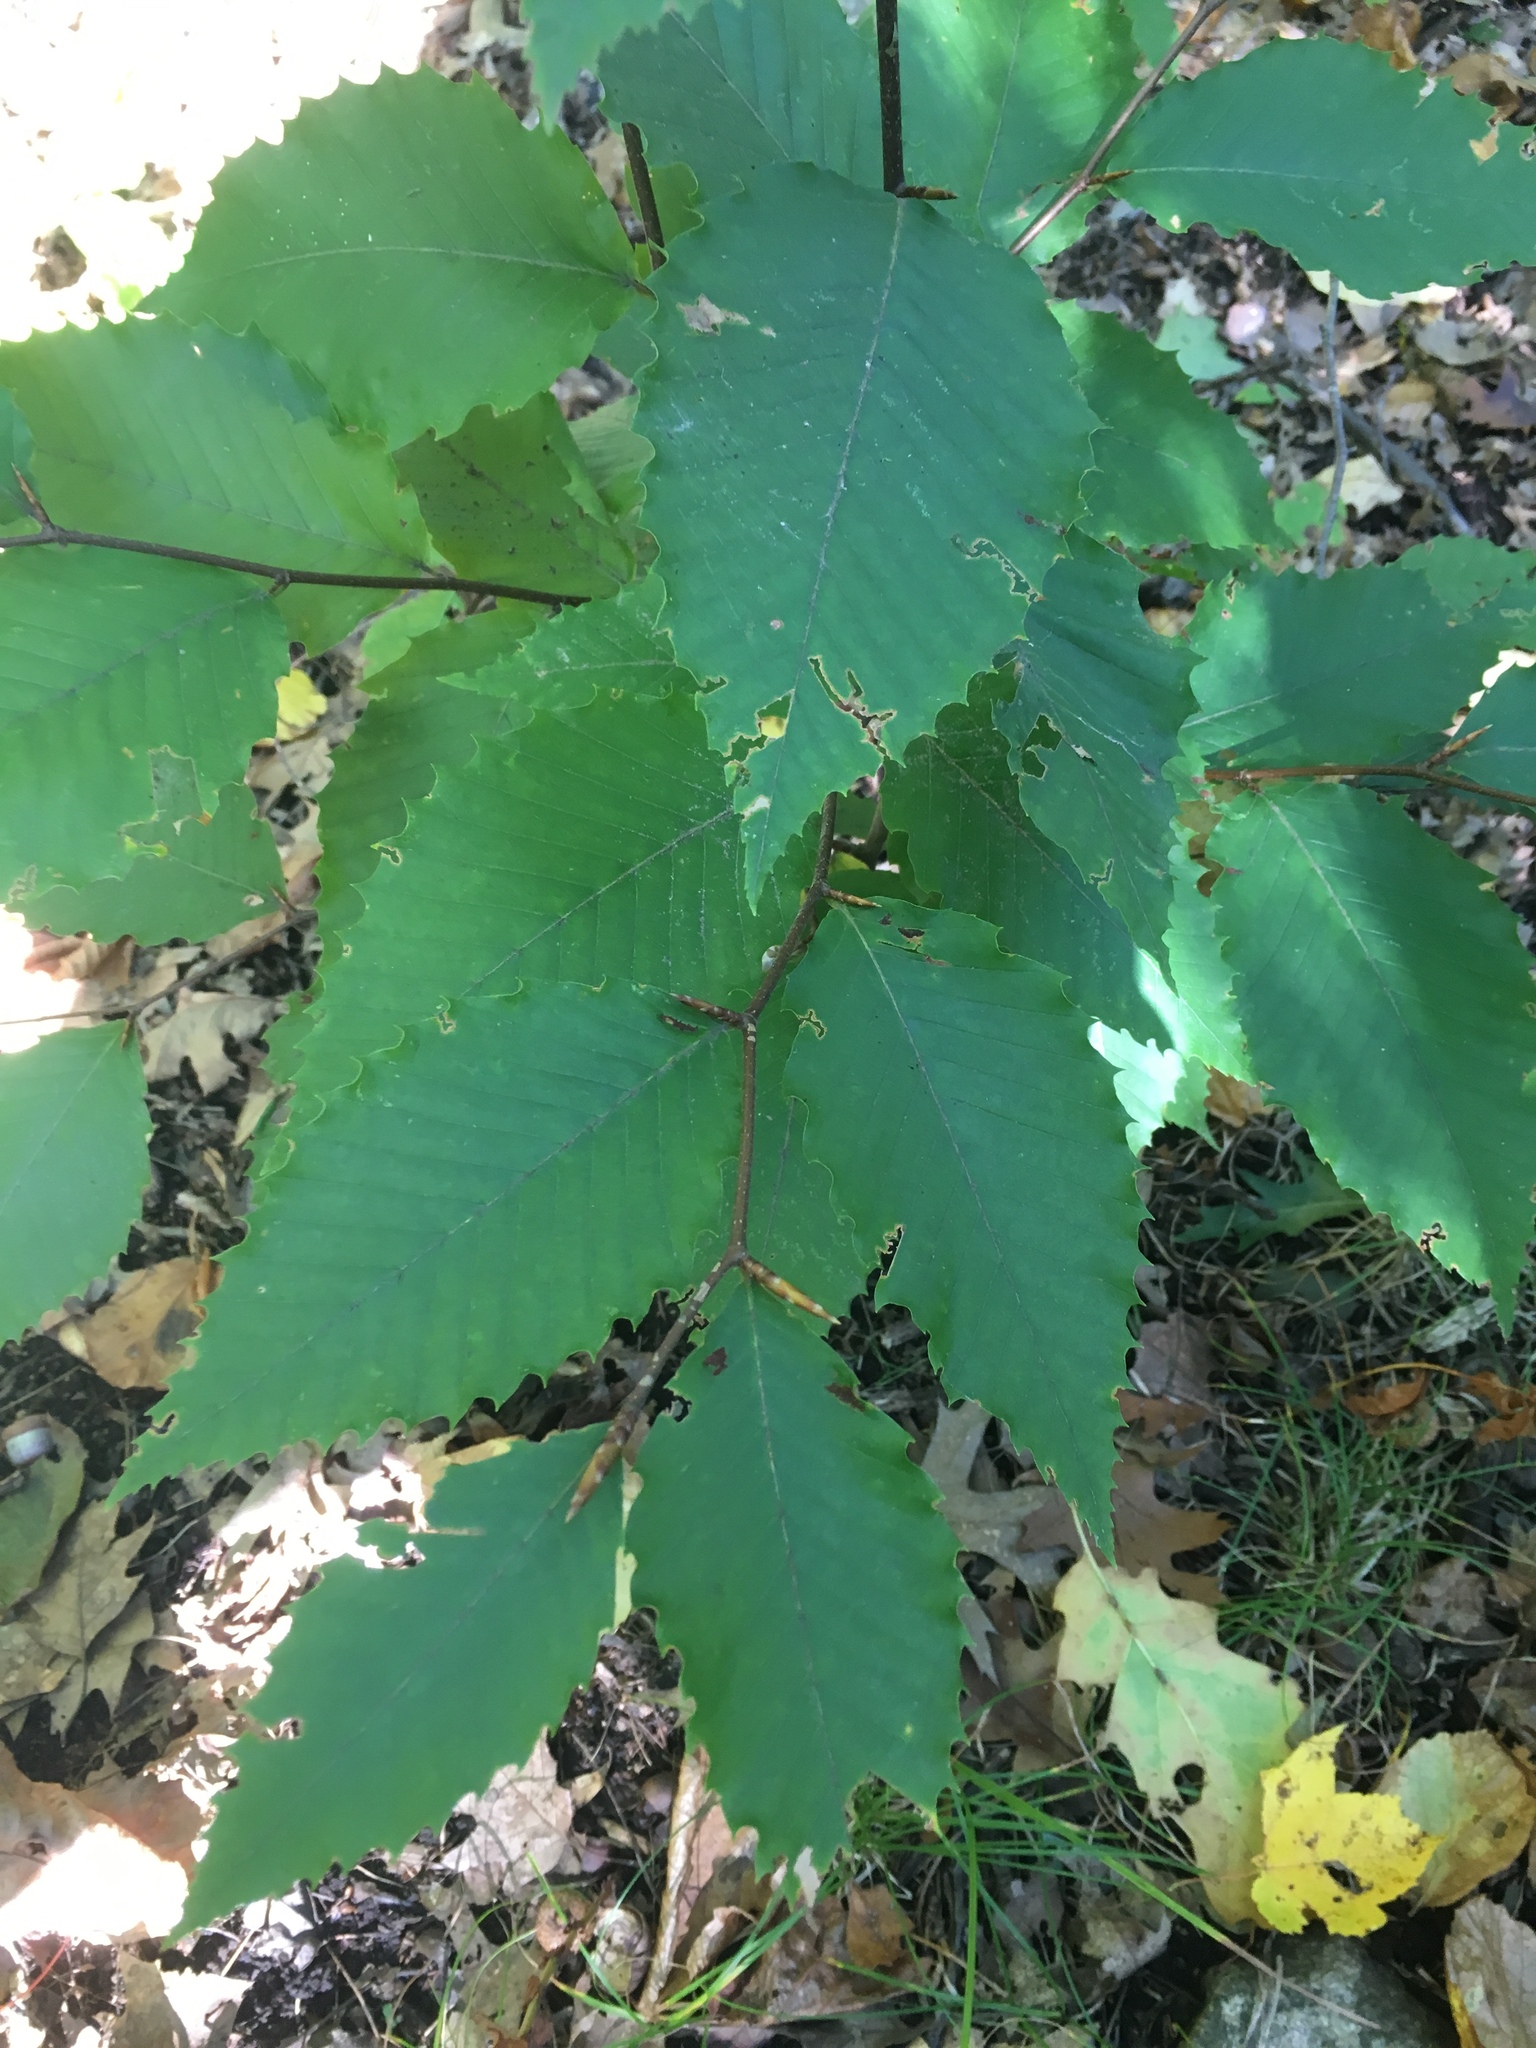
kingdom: Plantae
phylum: Tracheophyta
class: Magnoliopsida
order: Fagales
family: Fagaceae
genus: Fagus
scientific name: Fagus grandifolia
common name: American beech
